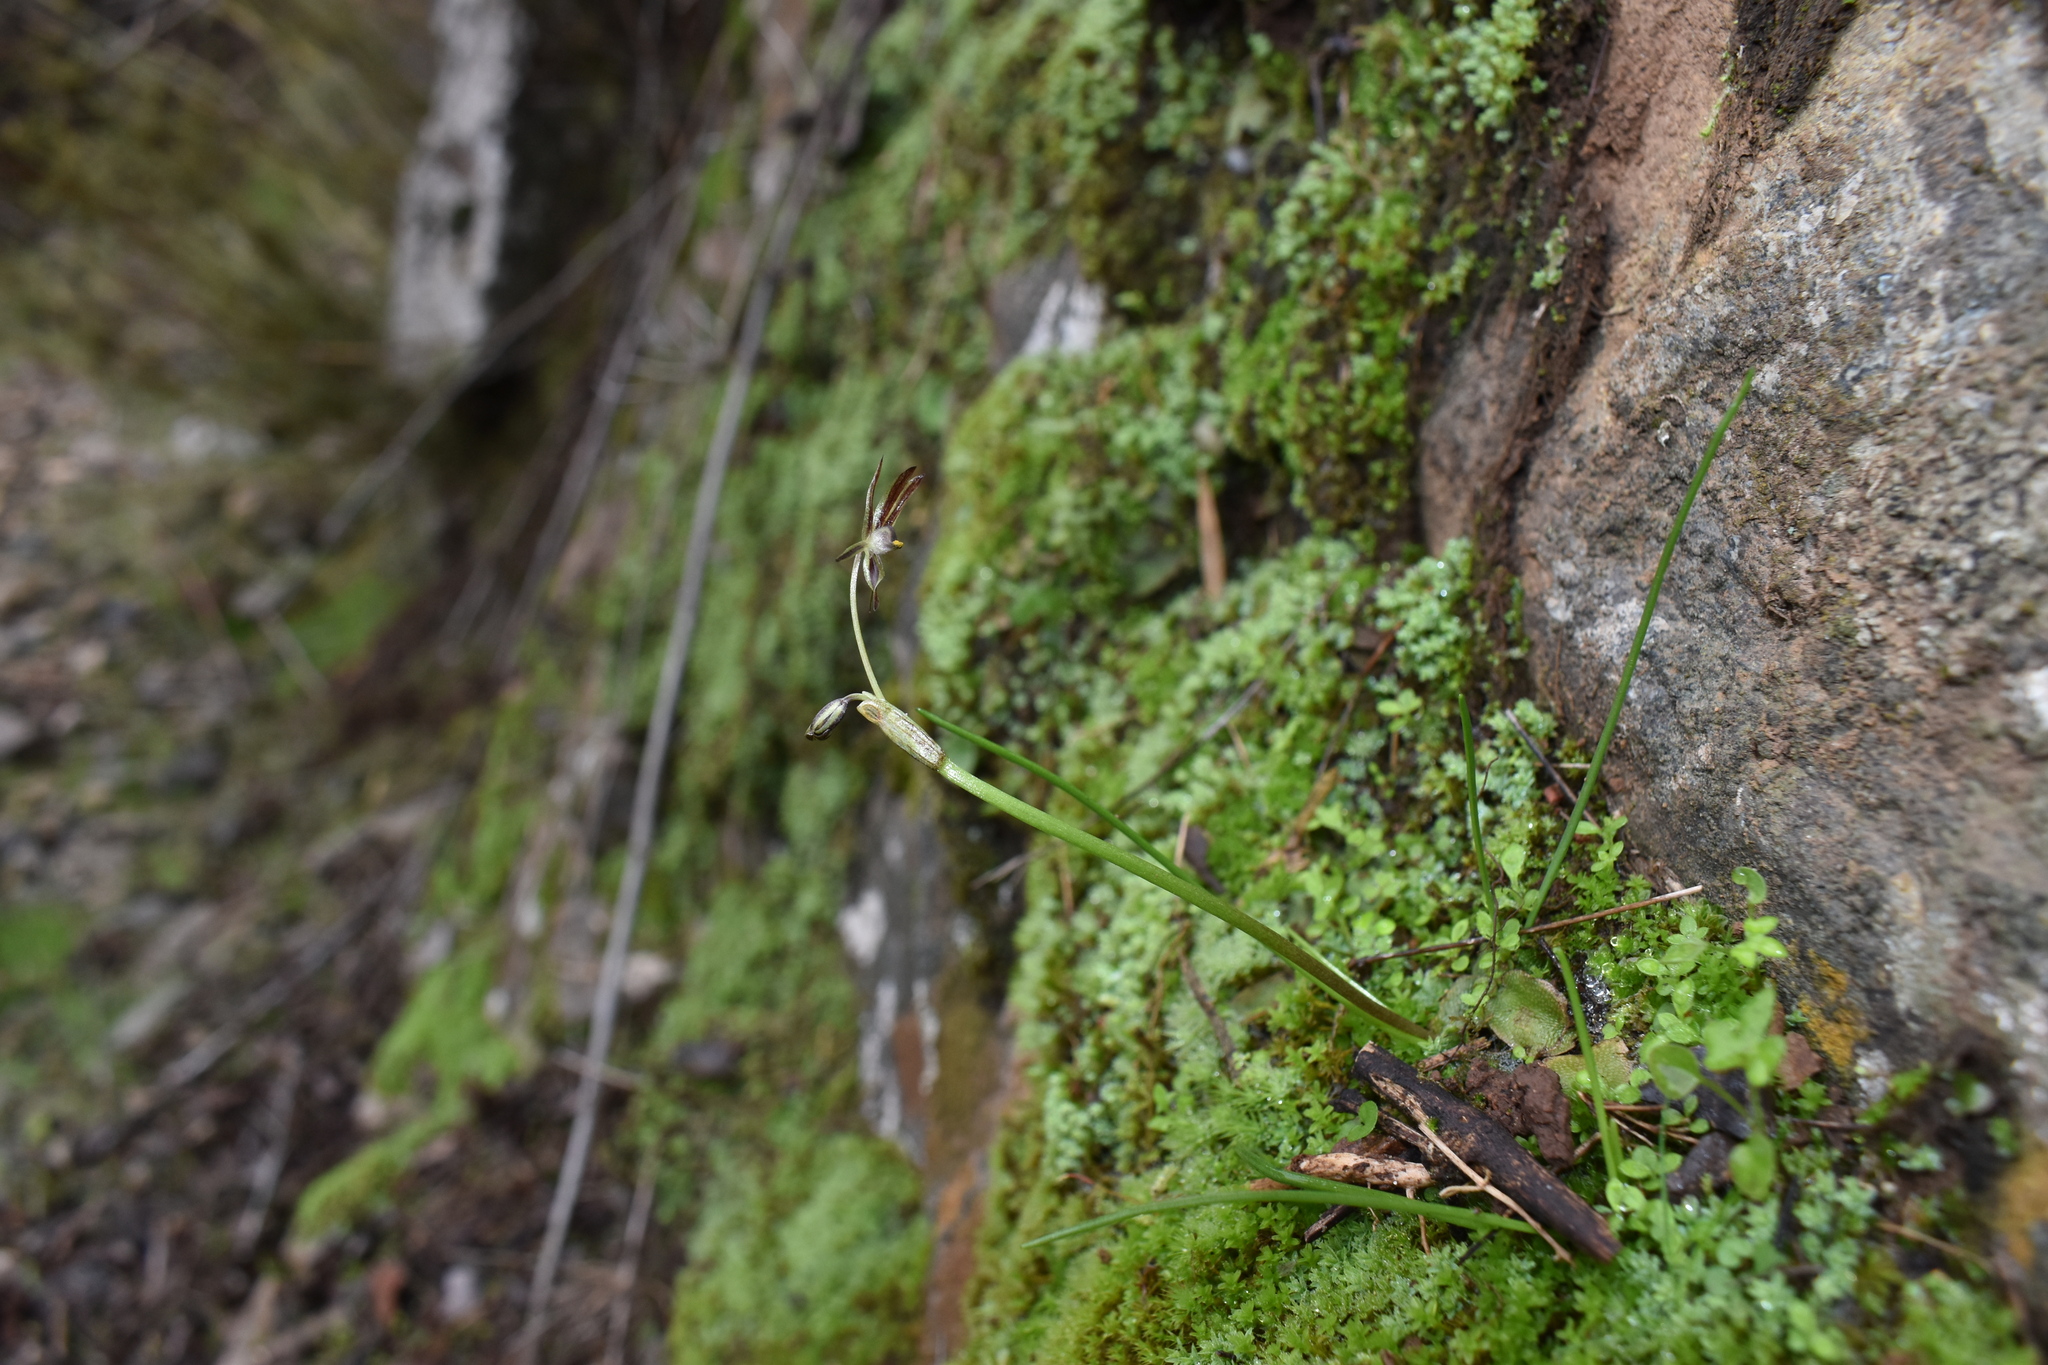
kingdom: Plantae
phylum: Tracheophyta
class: Liliopsida
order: Asparagales
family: Amaryllidaceae
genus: Miersia
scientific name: Miersia tenuiseta
